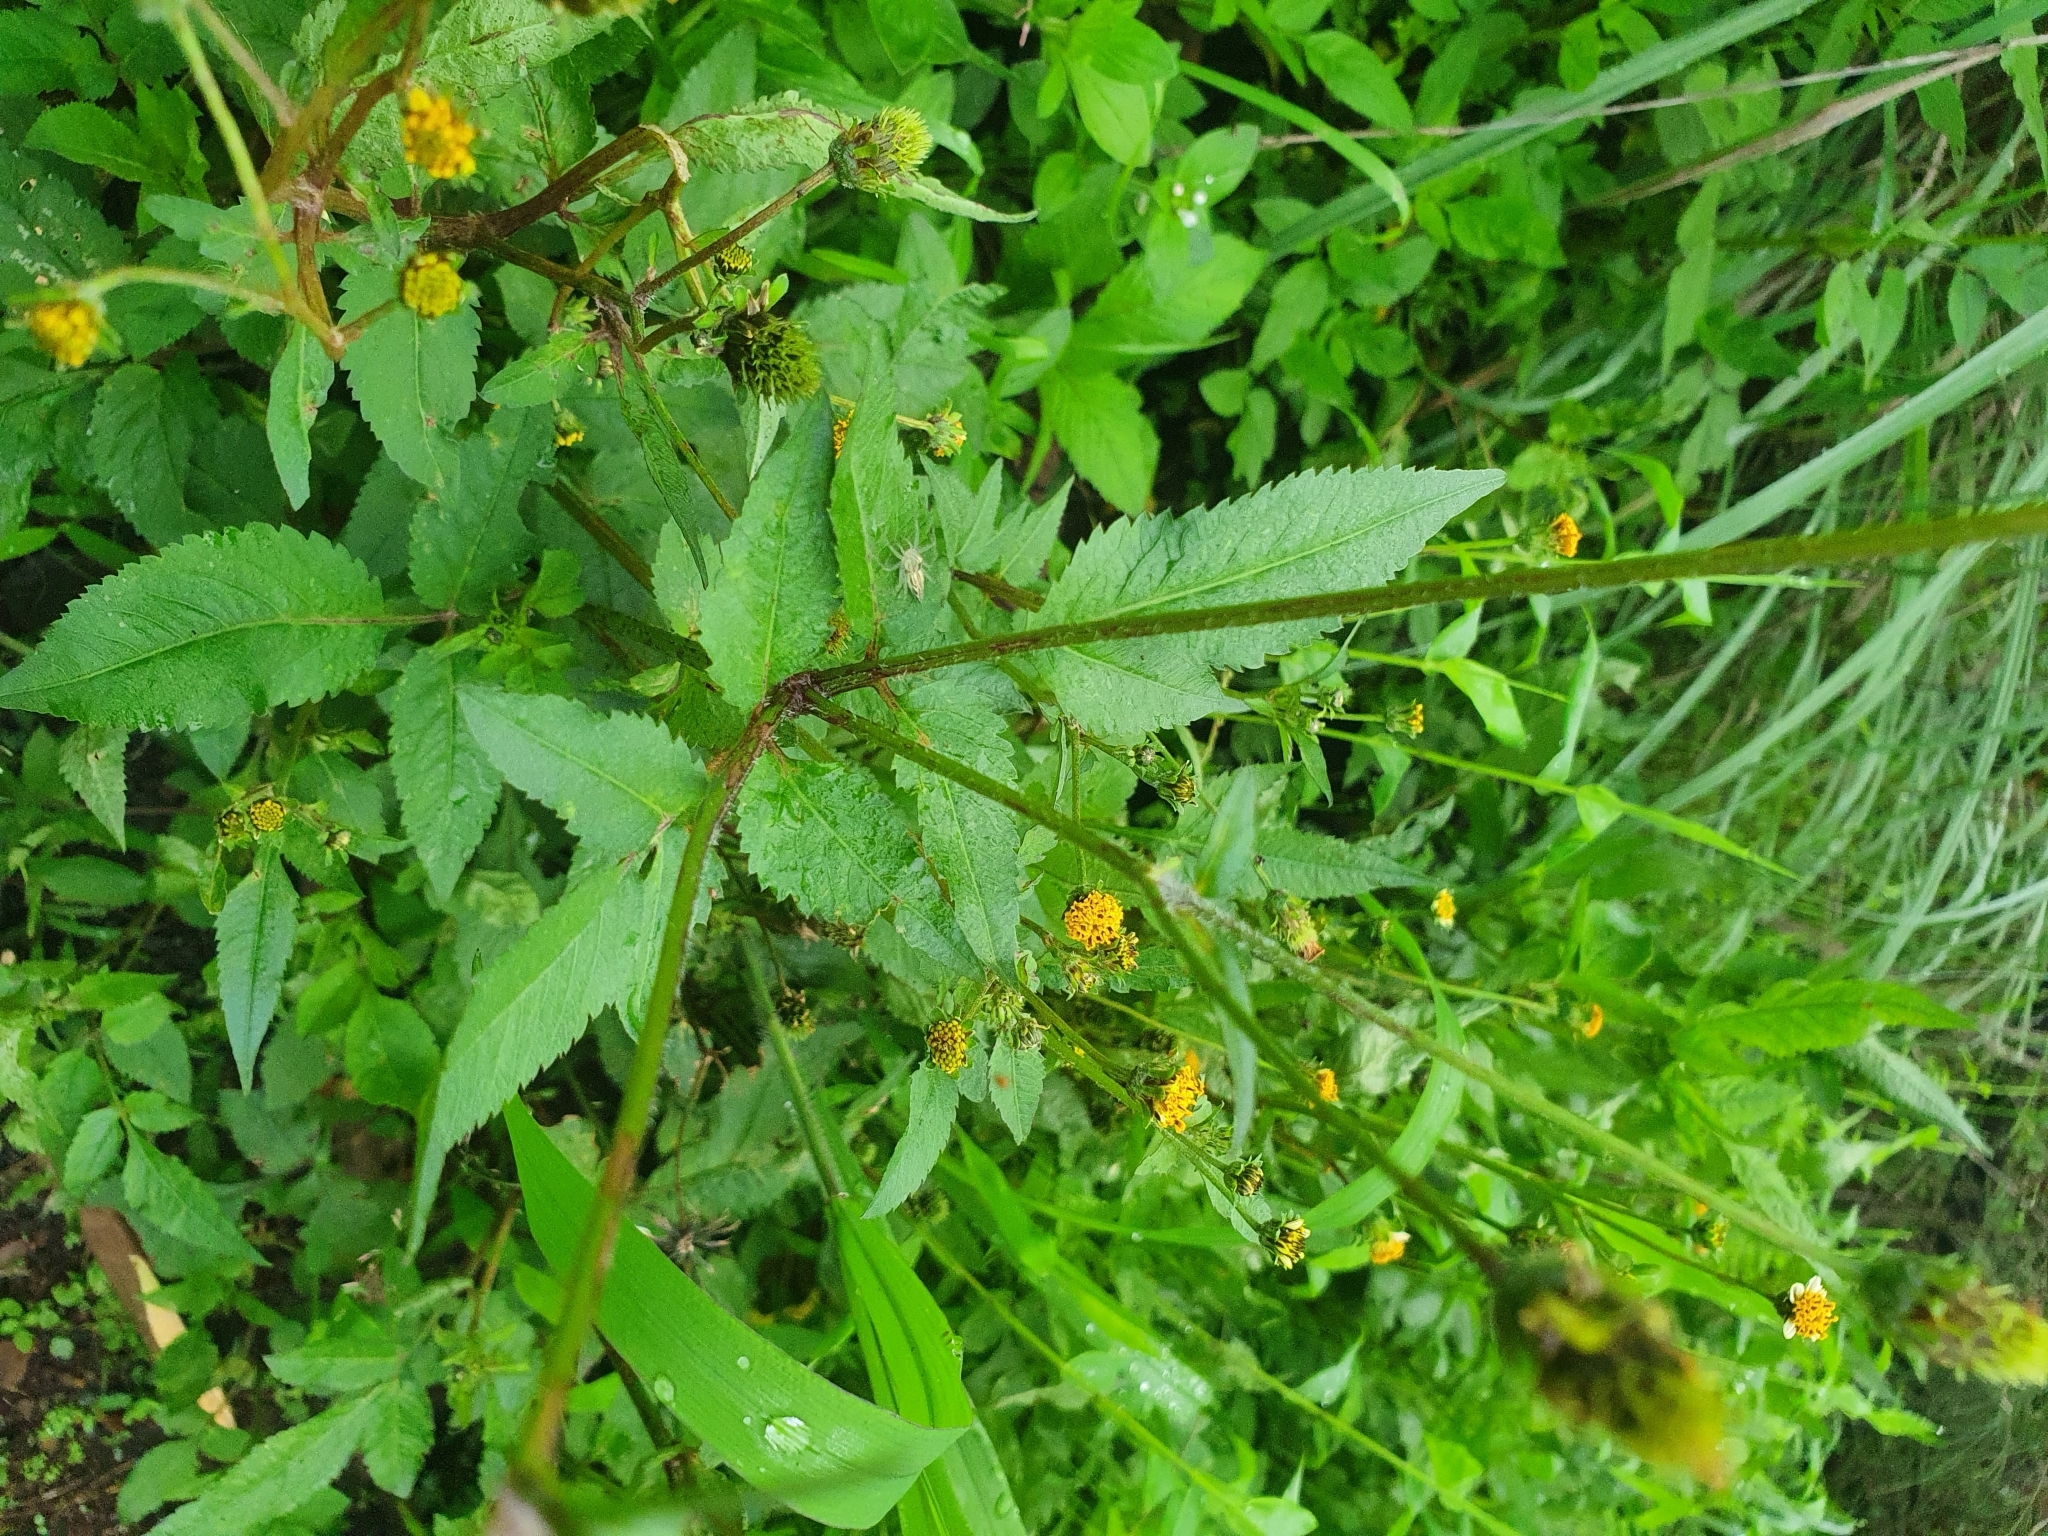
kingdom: Plantae
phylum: Tracheophyta
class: Magnoliopsida
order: Asterales
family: Asteraceae
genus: Bidens
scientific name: Bidens pilosa
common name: Black-jack
